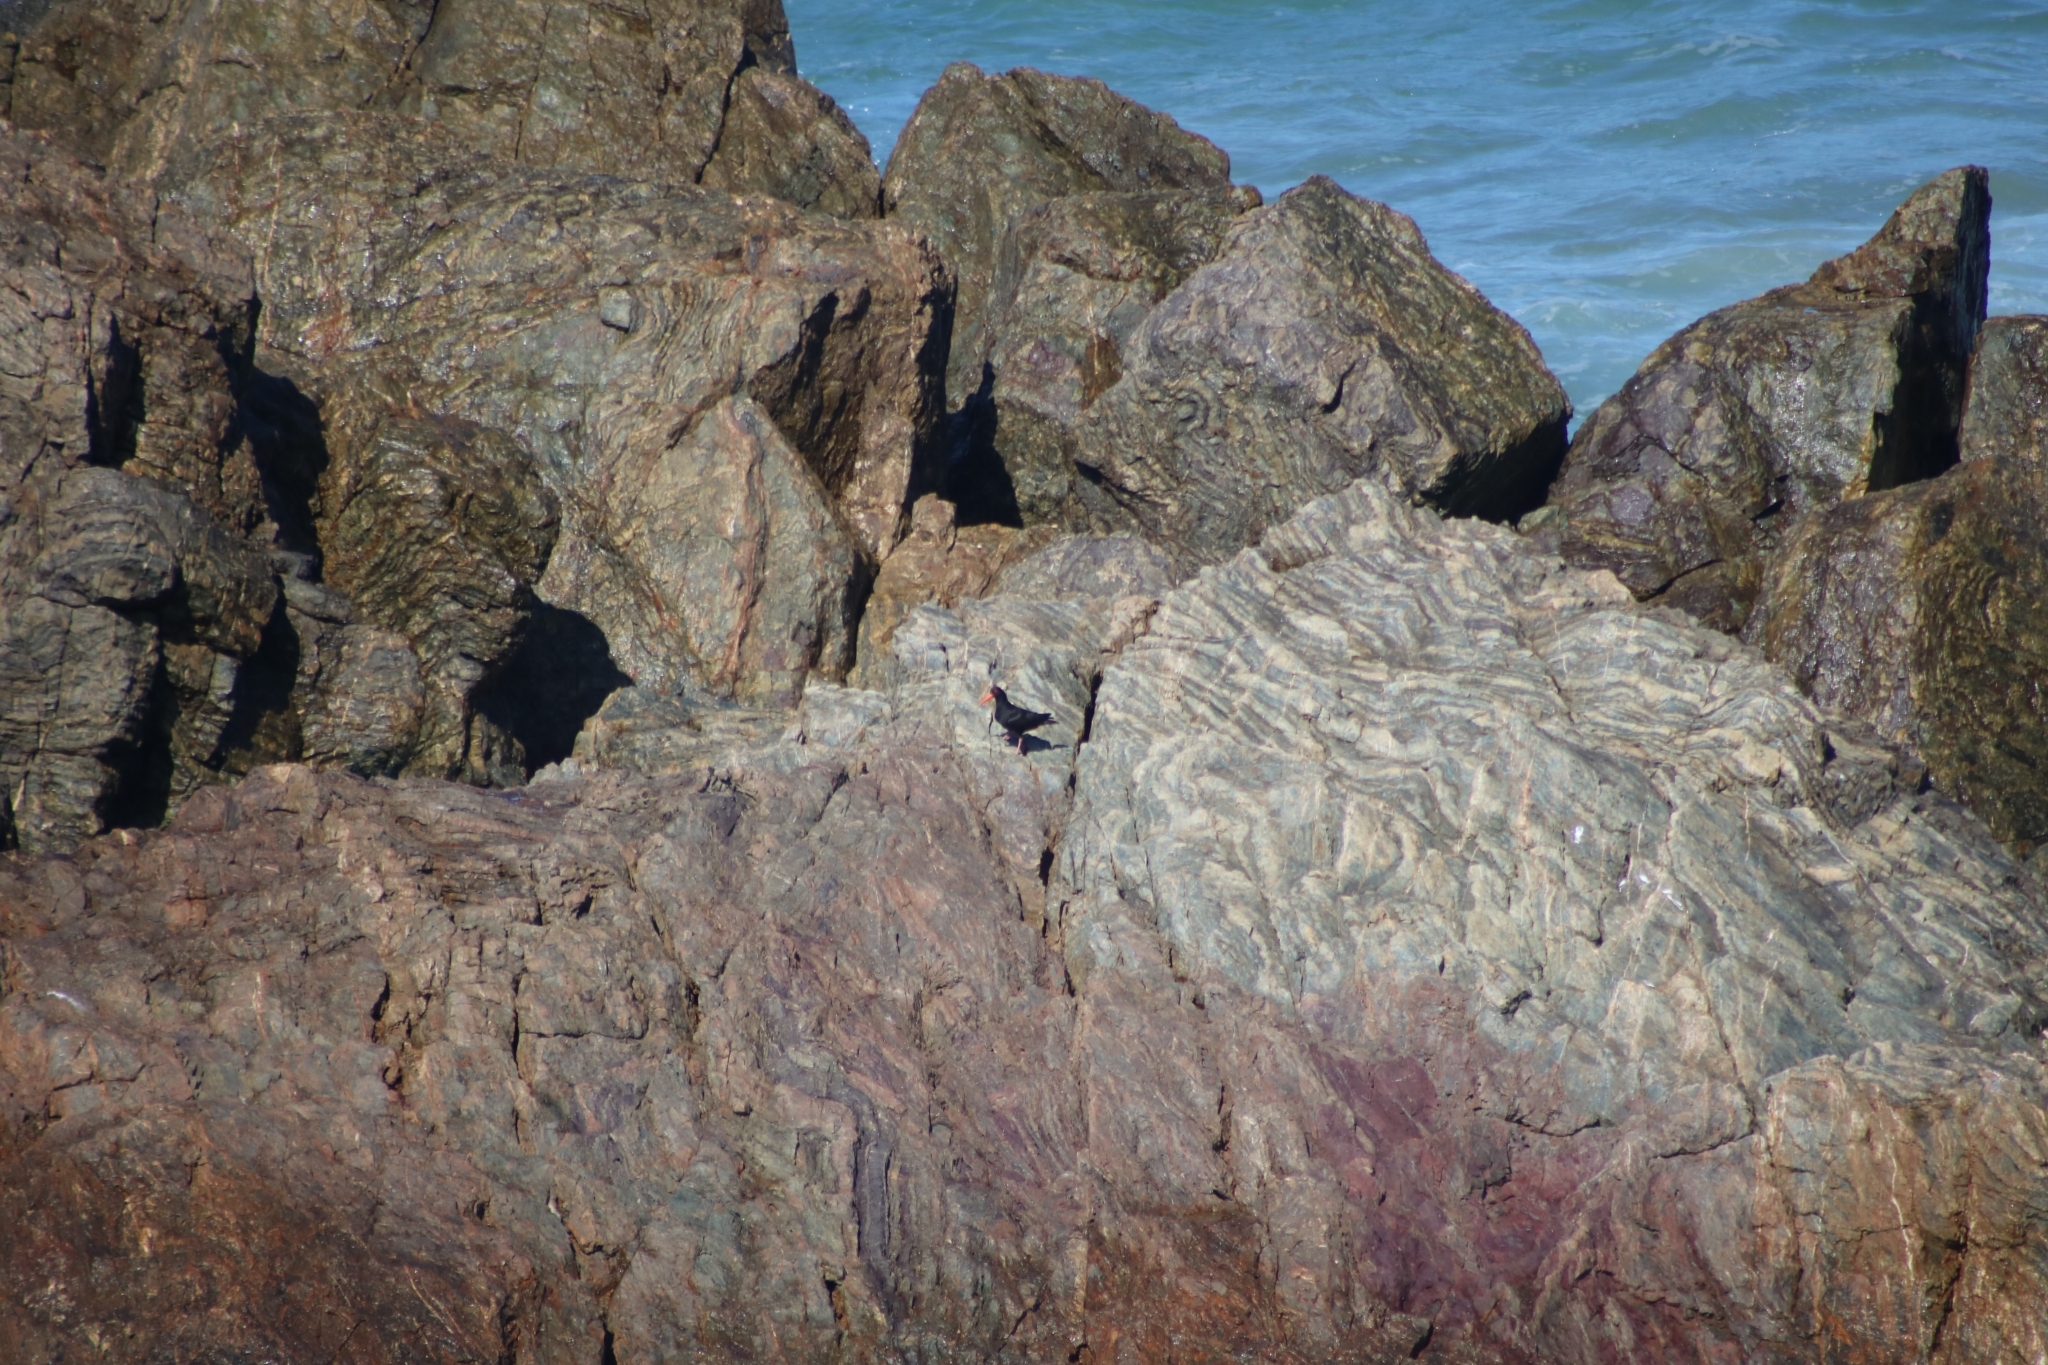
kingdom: Animalia
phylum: Chordata
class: Aves
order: Charadriiformes
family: Haematopodidae
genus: Haematopus
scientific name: Haematopus fuliginosus
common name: Sooty oystercatcher
